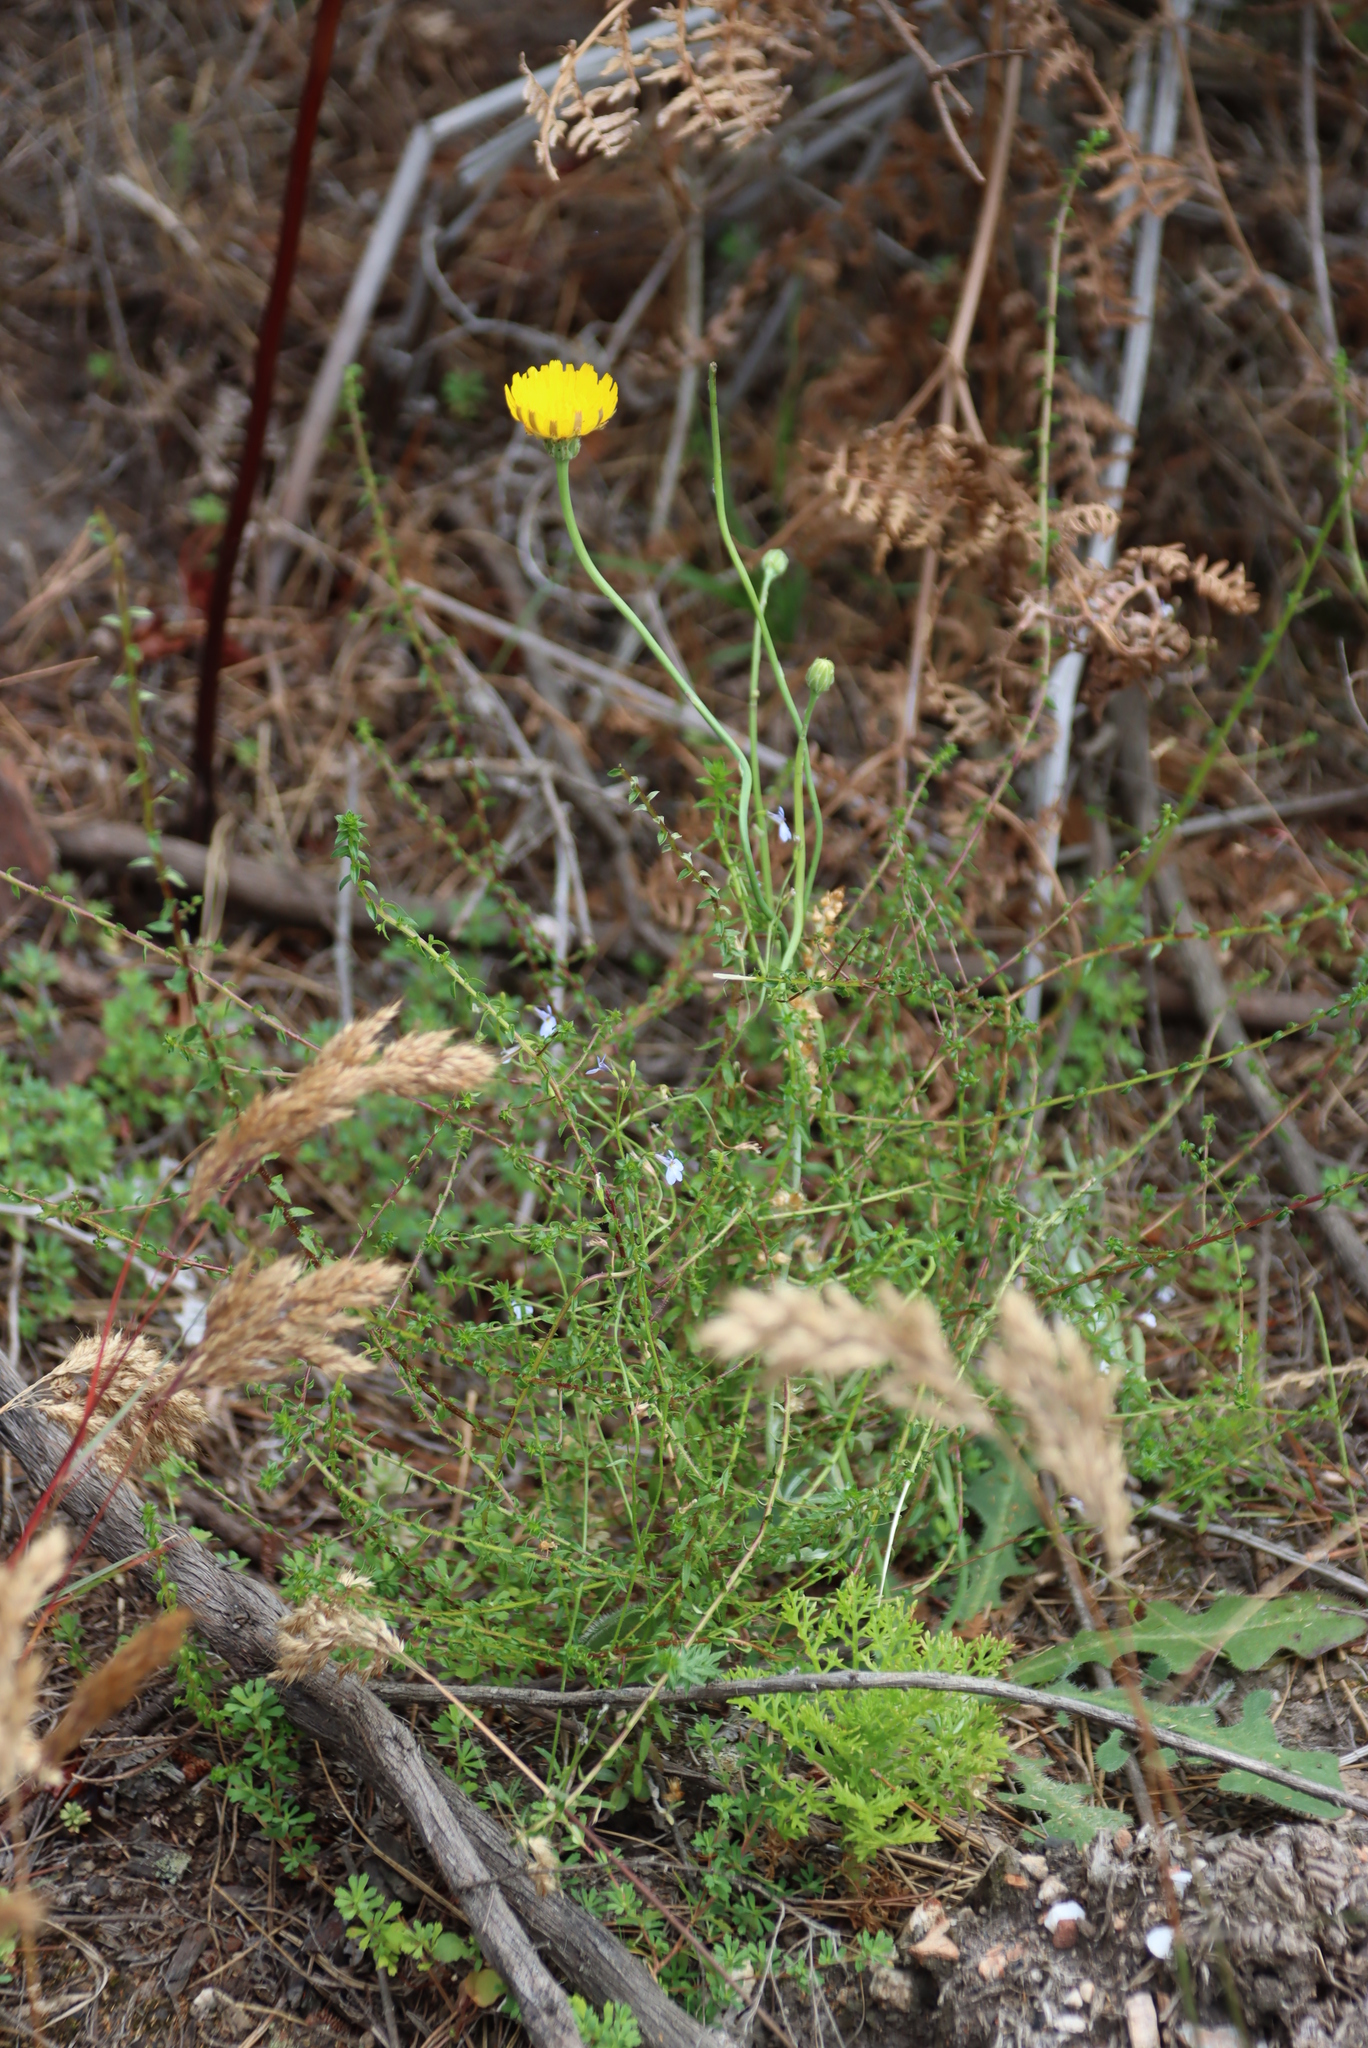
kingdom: Plantae
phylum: Tracheophyta
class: Magnoliopsida
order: Asterales
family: Asteraceae
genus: Hypochaeris
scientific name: Hypochaeris radicata
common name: Flatweed
